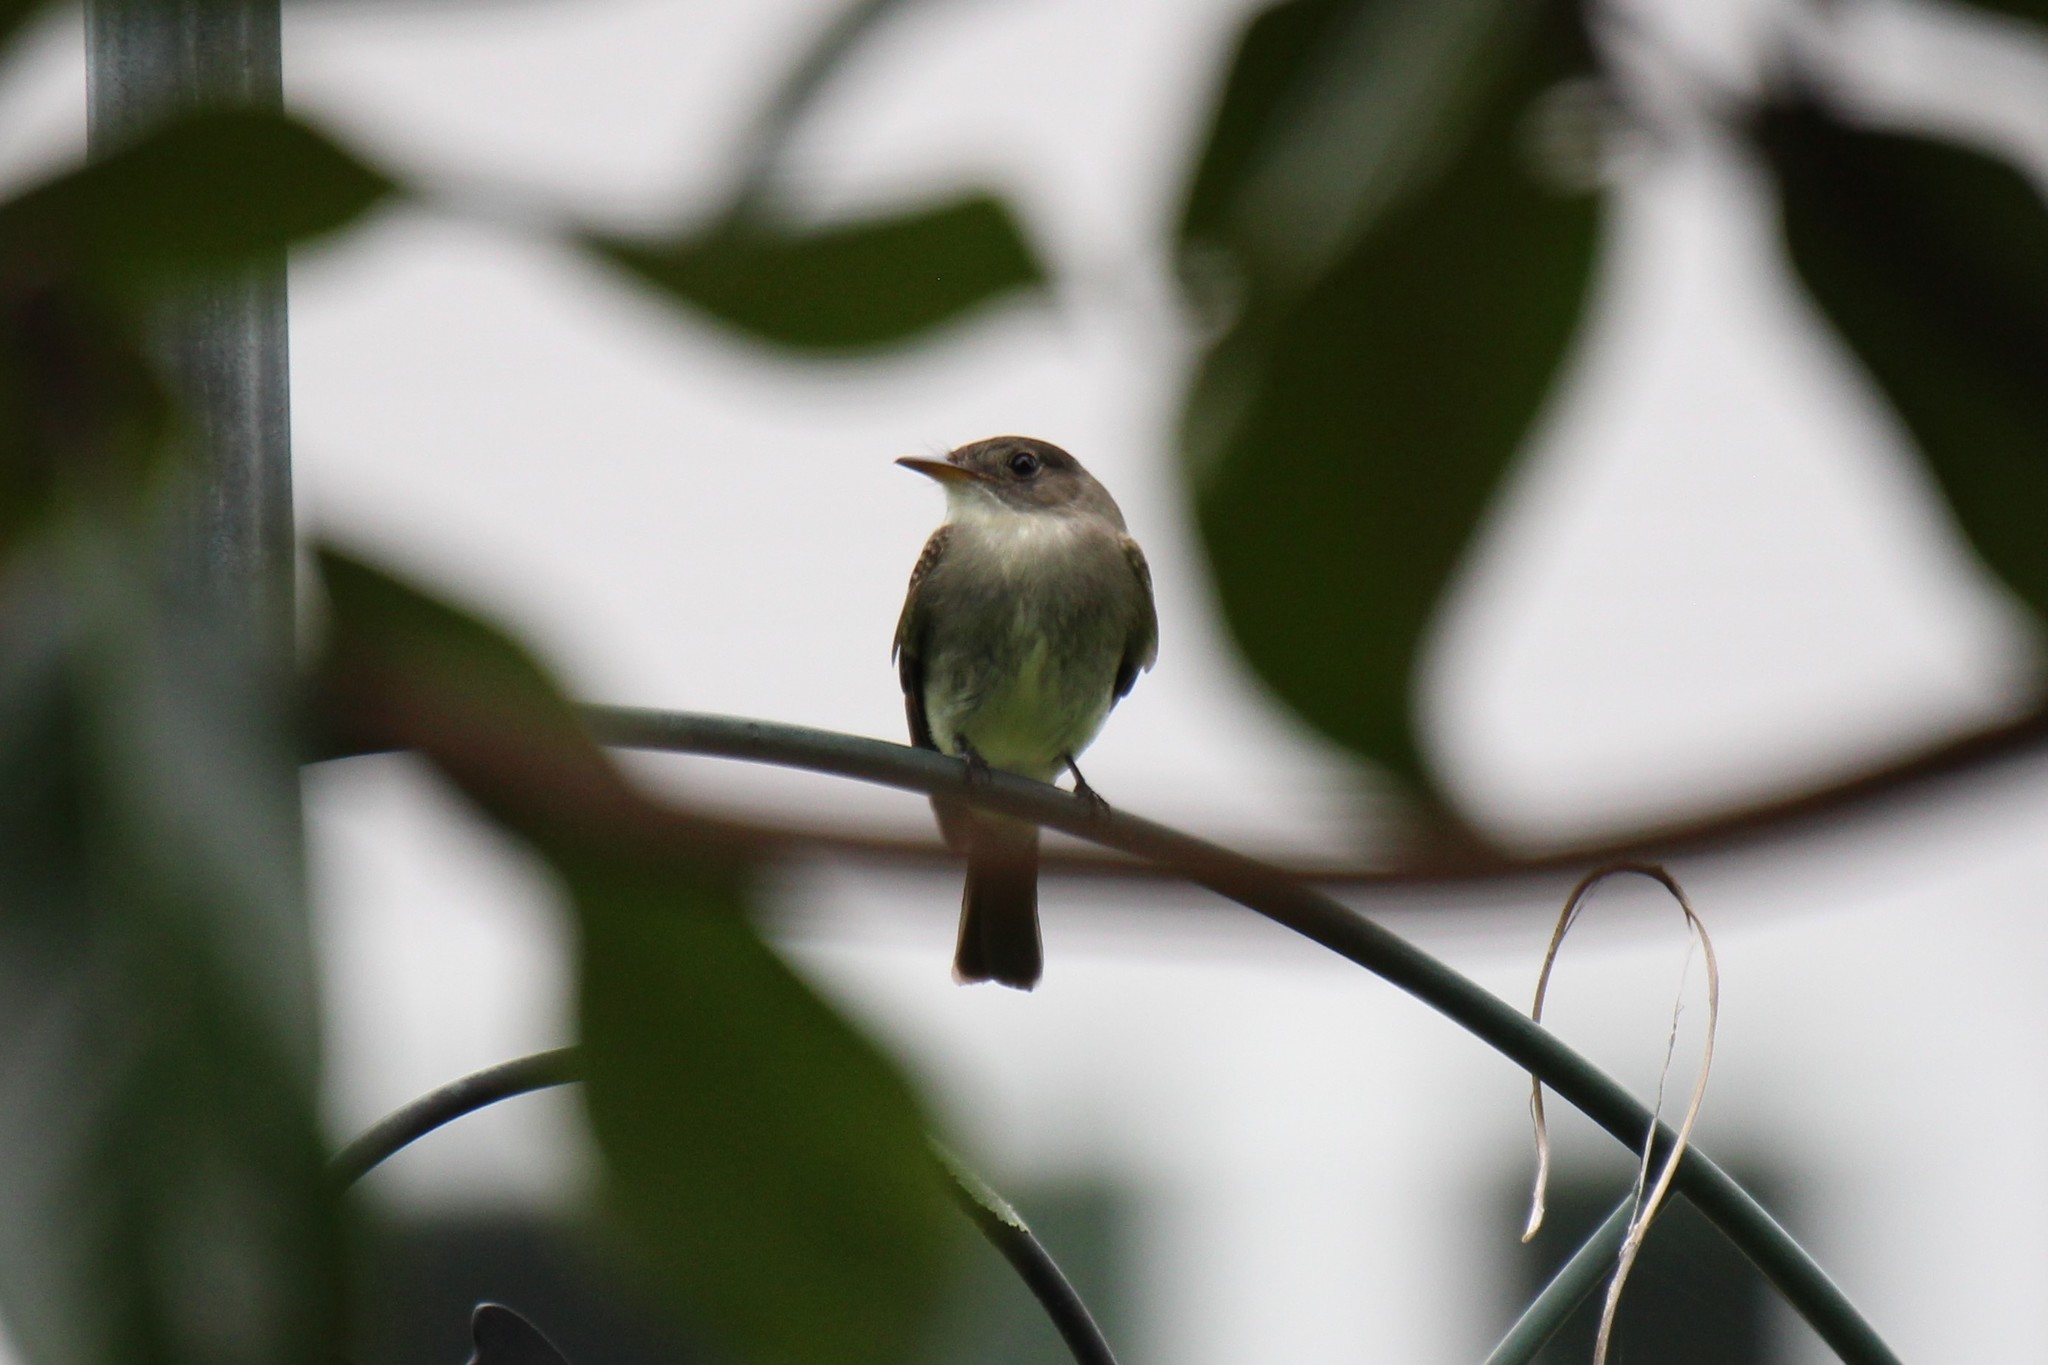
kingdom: Animalia
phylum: Chordata
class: Aves
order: Passeriformes
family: Tyrannidae
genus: Contopus
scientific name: Contopus virens
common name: Eastern wood-pewee
